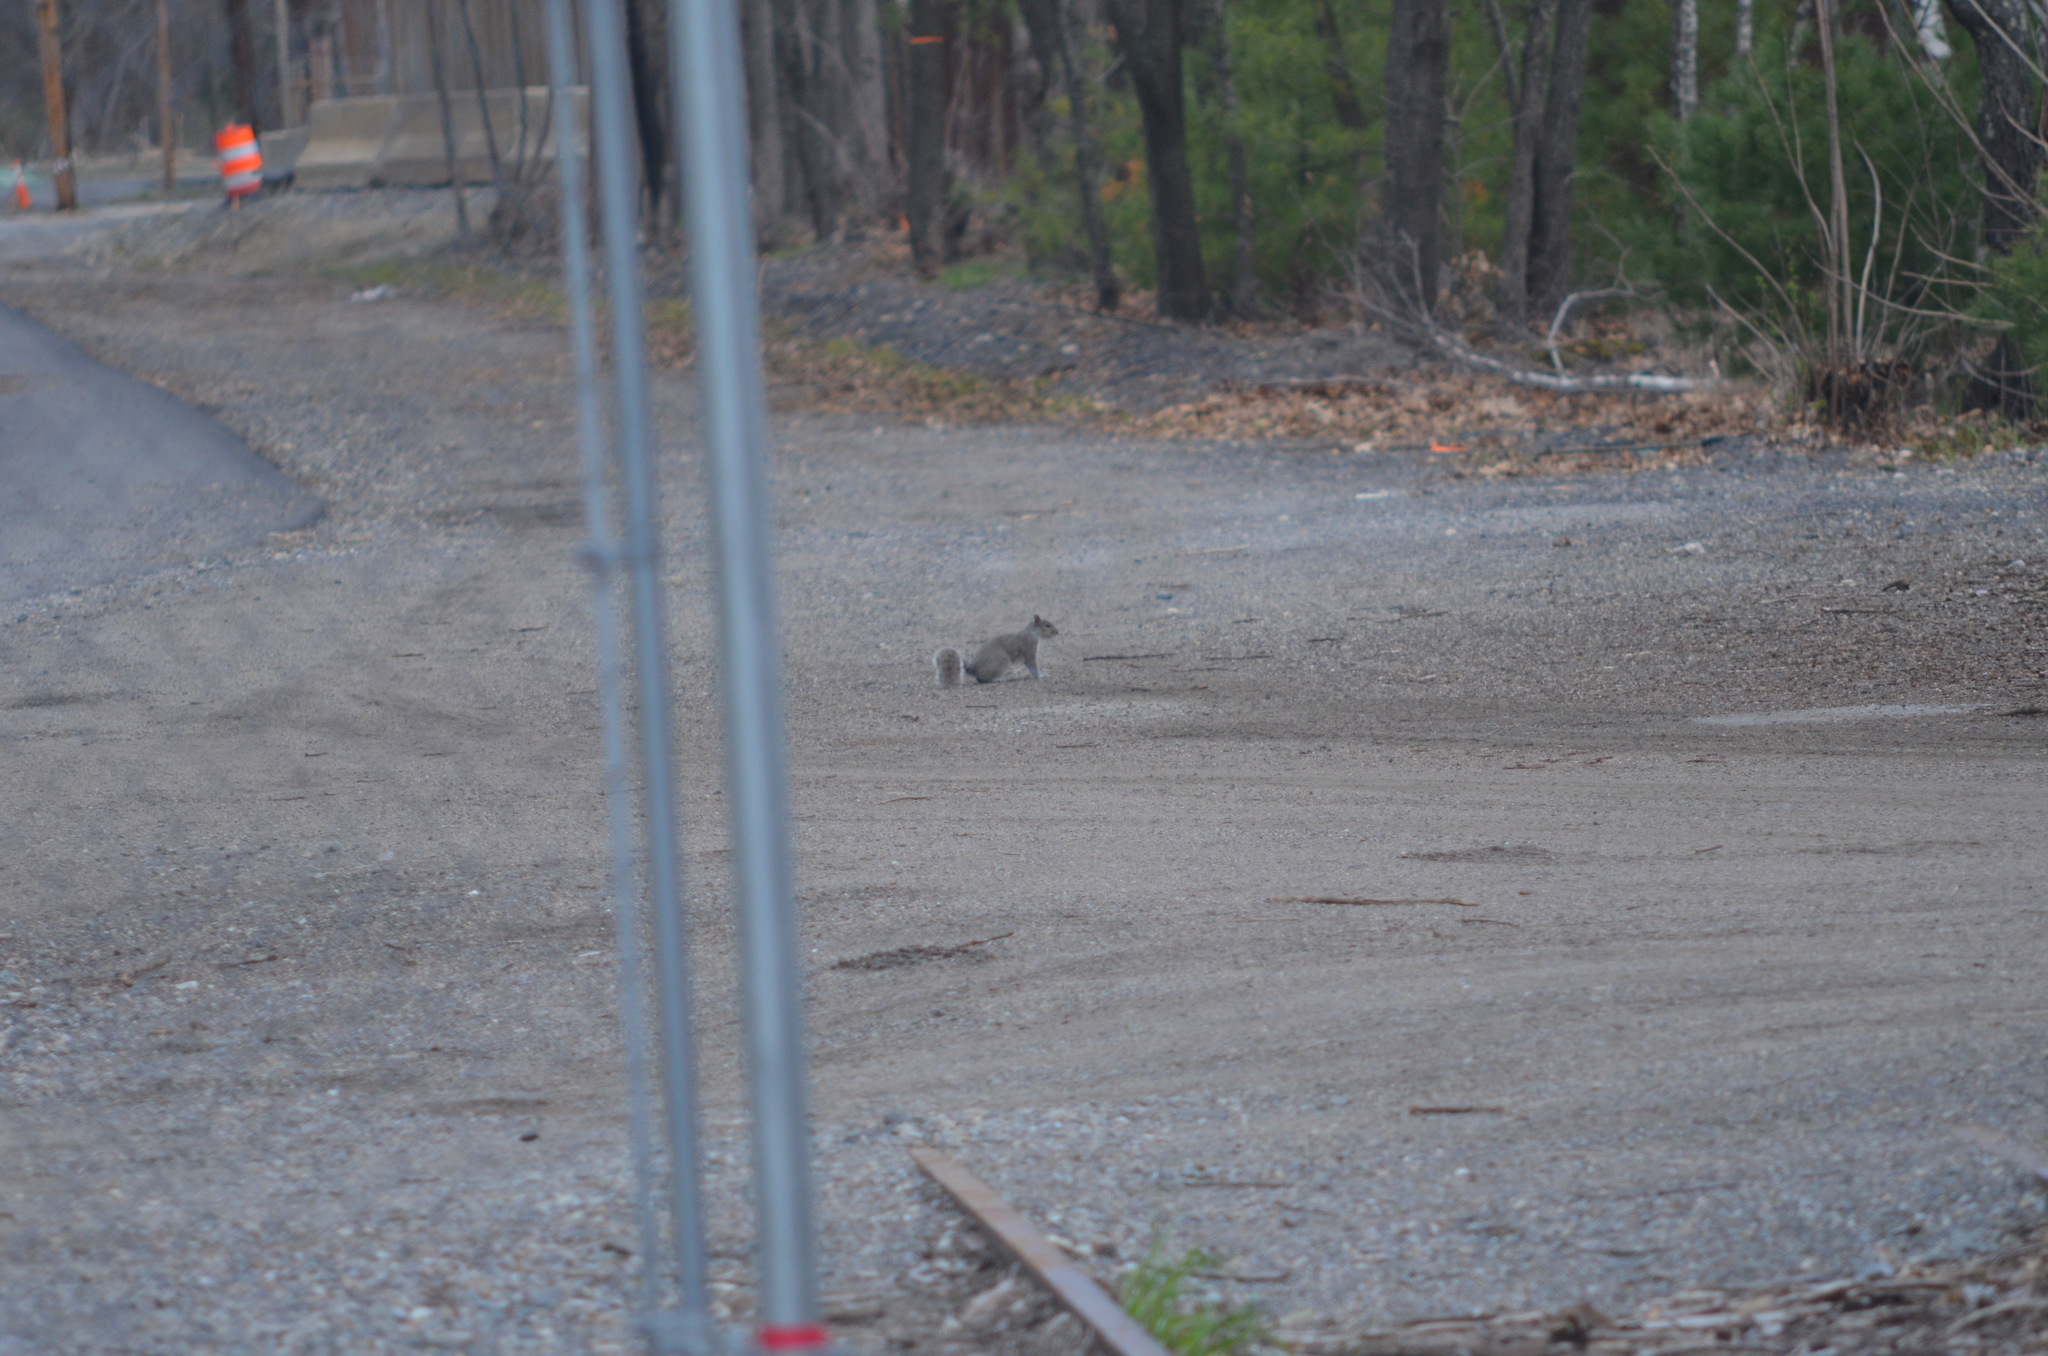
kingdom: Animalia
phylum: Chordata
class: Mammalia
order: Rodentia
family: Sciuridae
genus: Sciurus
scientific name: Sciurus carolinensis
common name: Eastern gray squirrel
